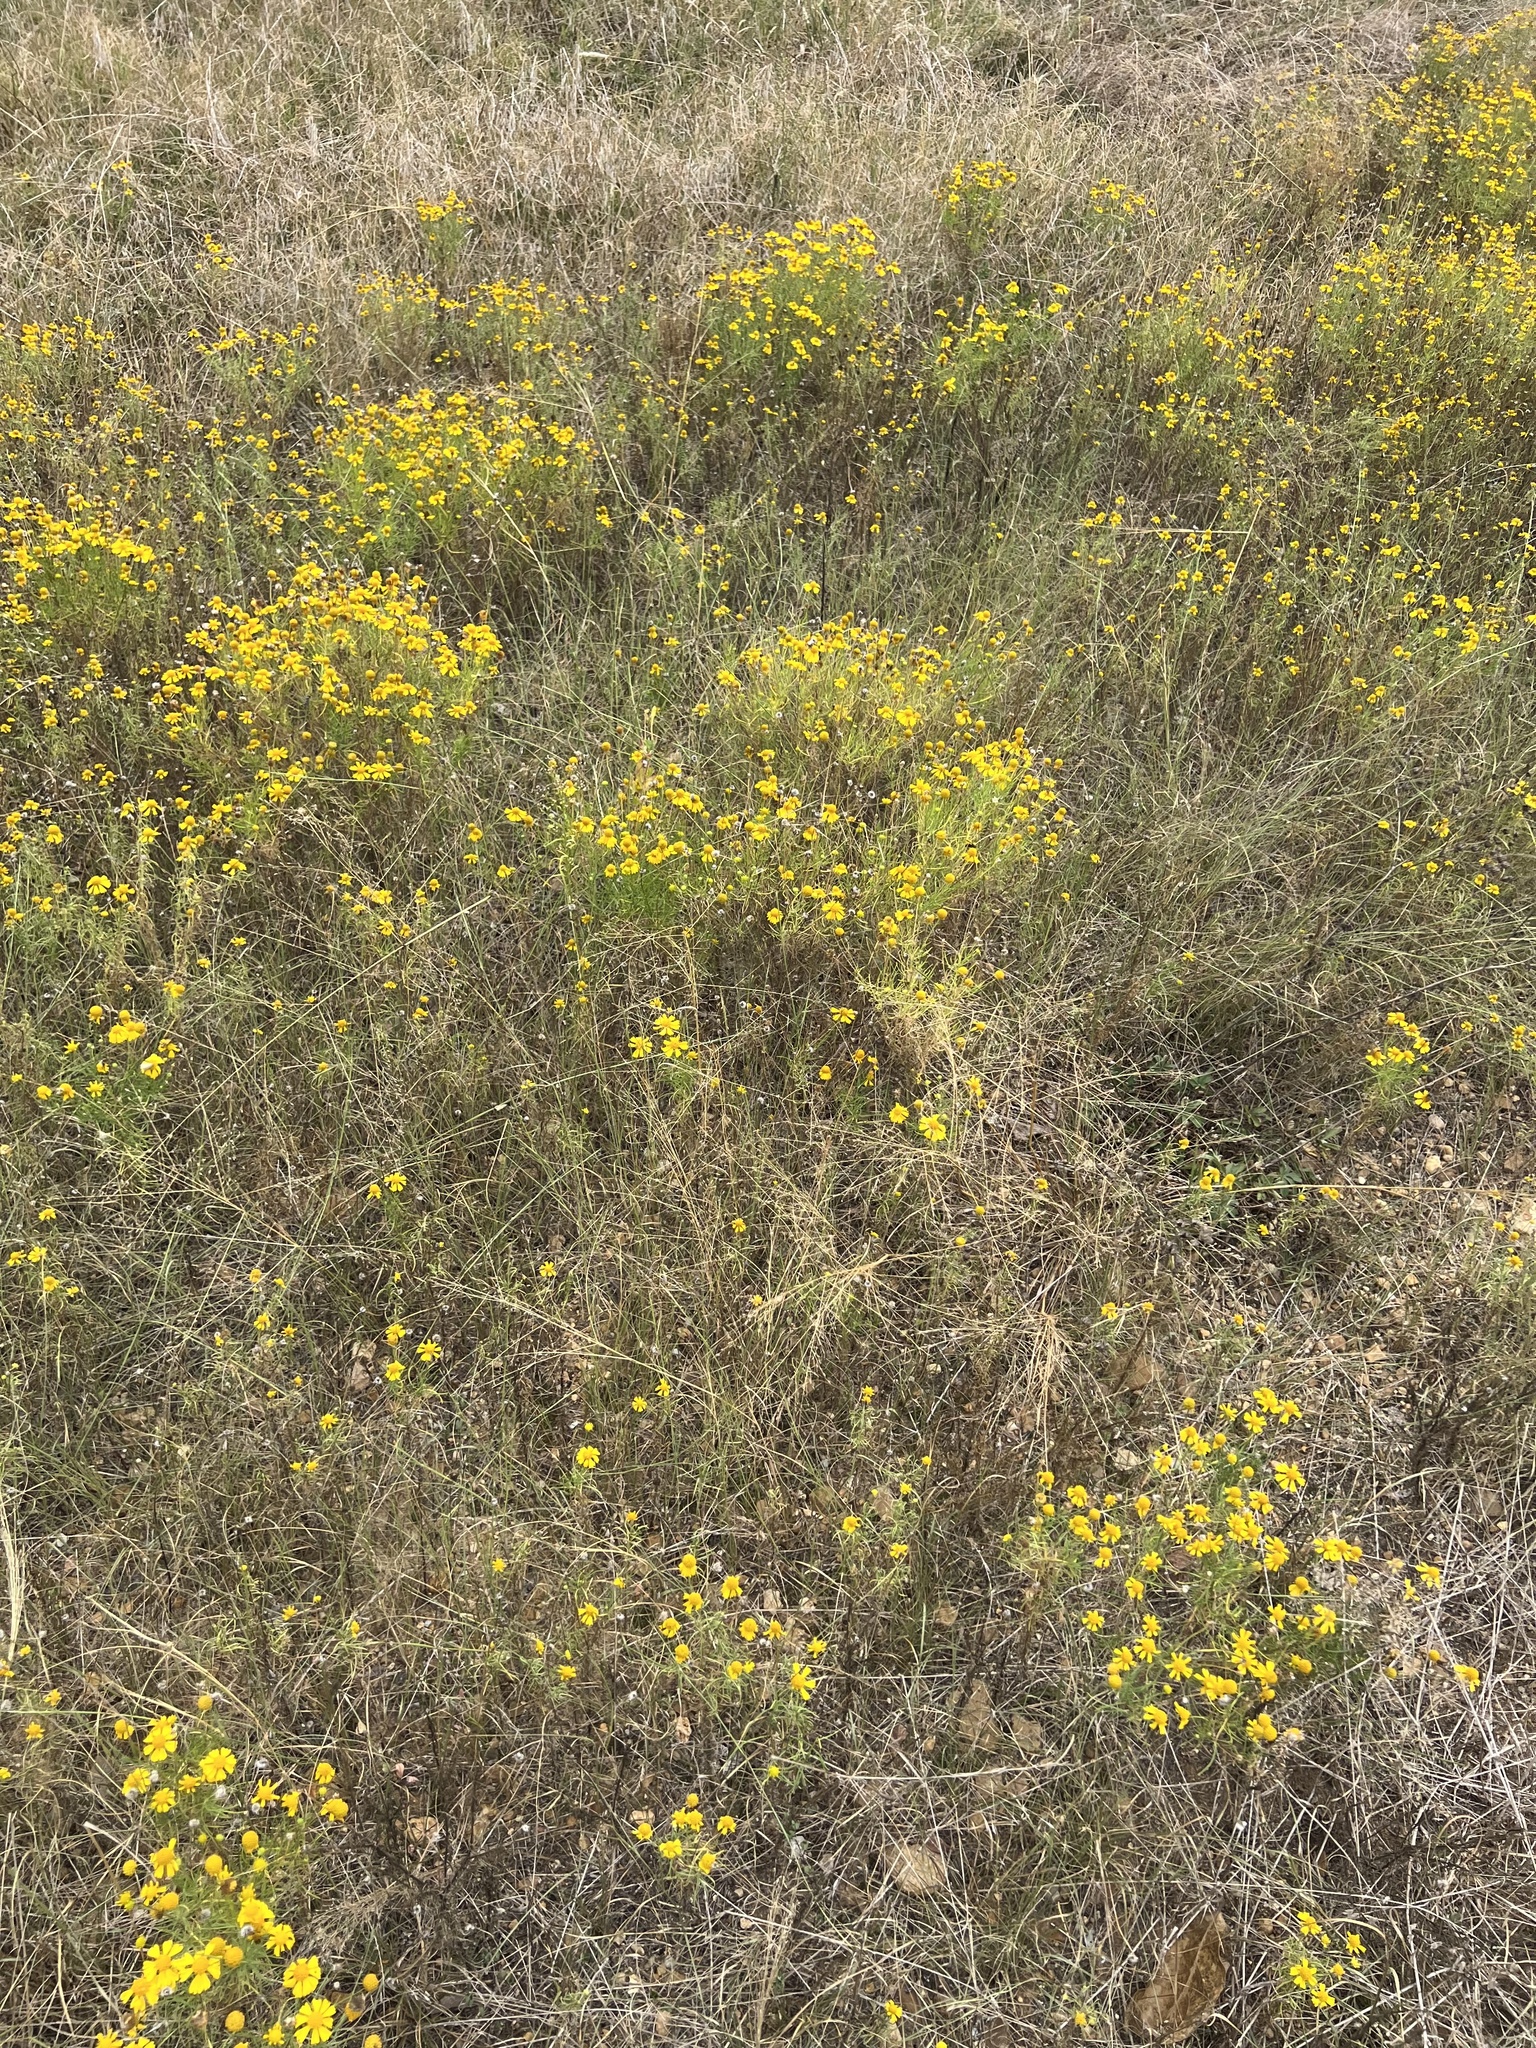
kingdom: Plantae
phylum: Tracheophyta
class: Magnoliopsida
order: Asterales
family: Asteraceae
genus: Helenium
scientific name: Helenium amarum
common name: Bitter sneezeweed
